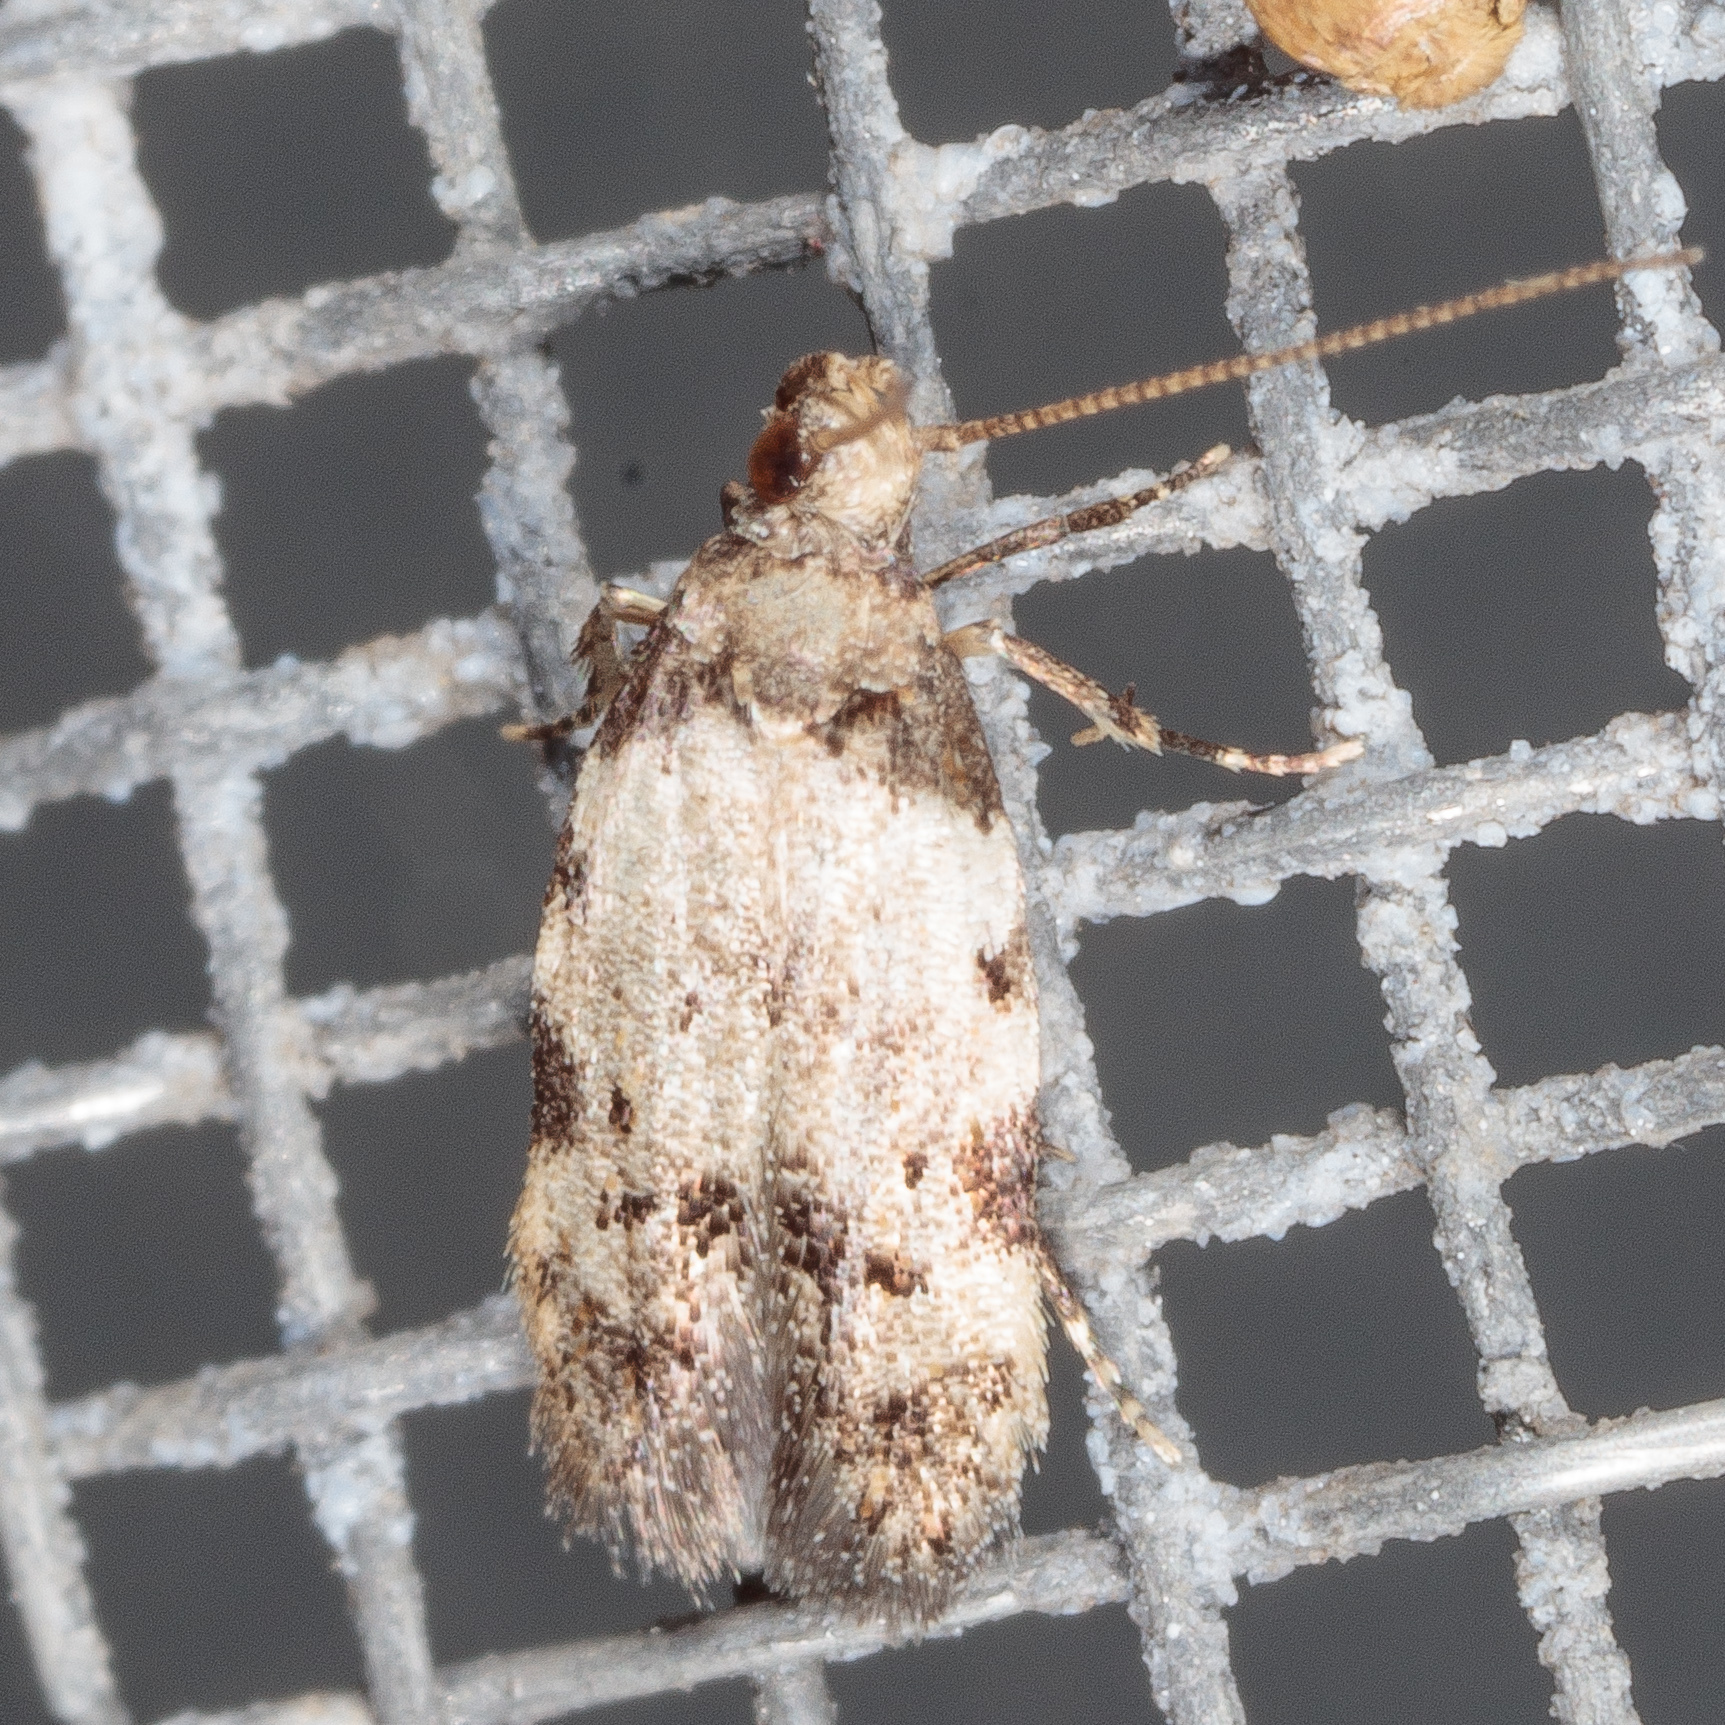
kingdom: Animalia
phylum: Arthropoda
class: Insecta
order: Lepidoptera
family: Autostichidae
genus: Taygete
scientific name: Taygete attributella
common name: Triangle-marked twirler moth
